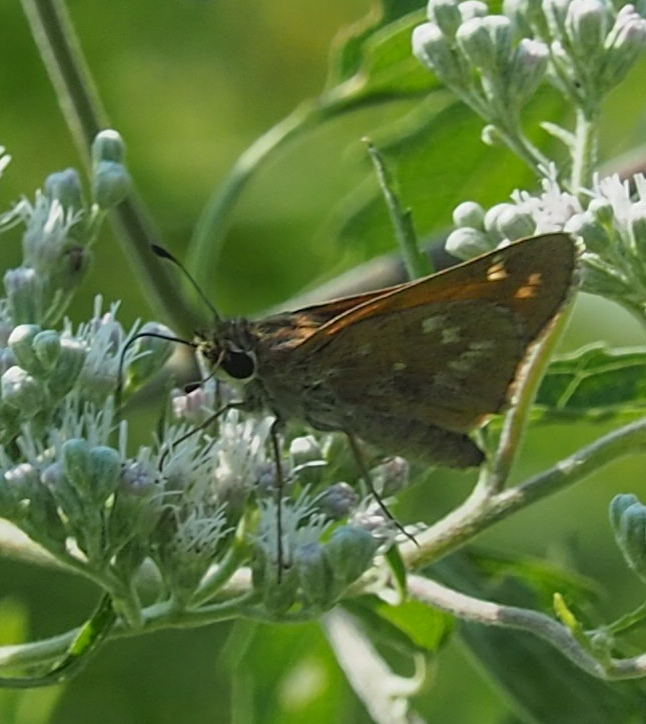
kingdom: Animalia
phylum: Arthropoda
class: Insecta
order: Lepidoptera
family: Hesperiidae
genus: Atalopedes
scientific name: Atalopedes
